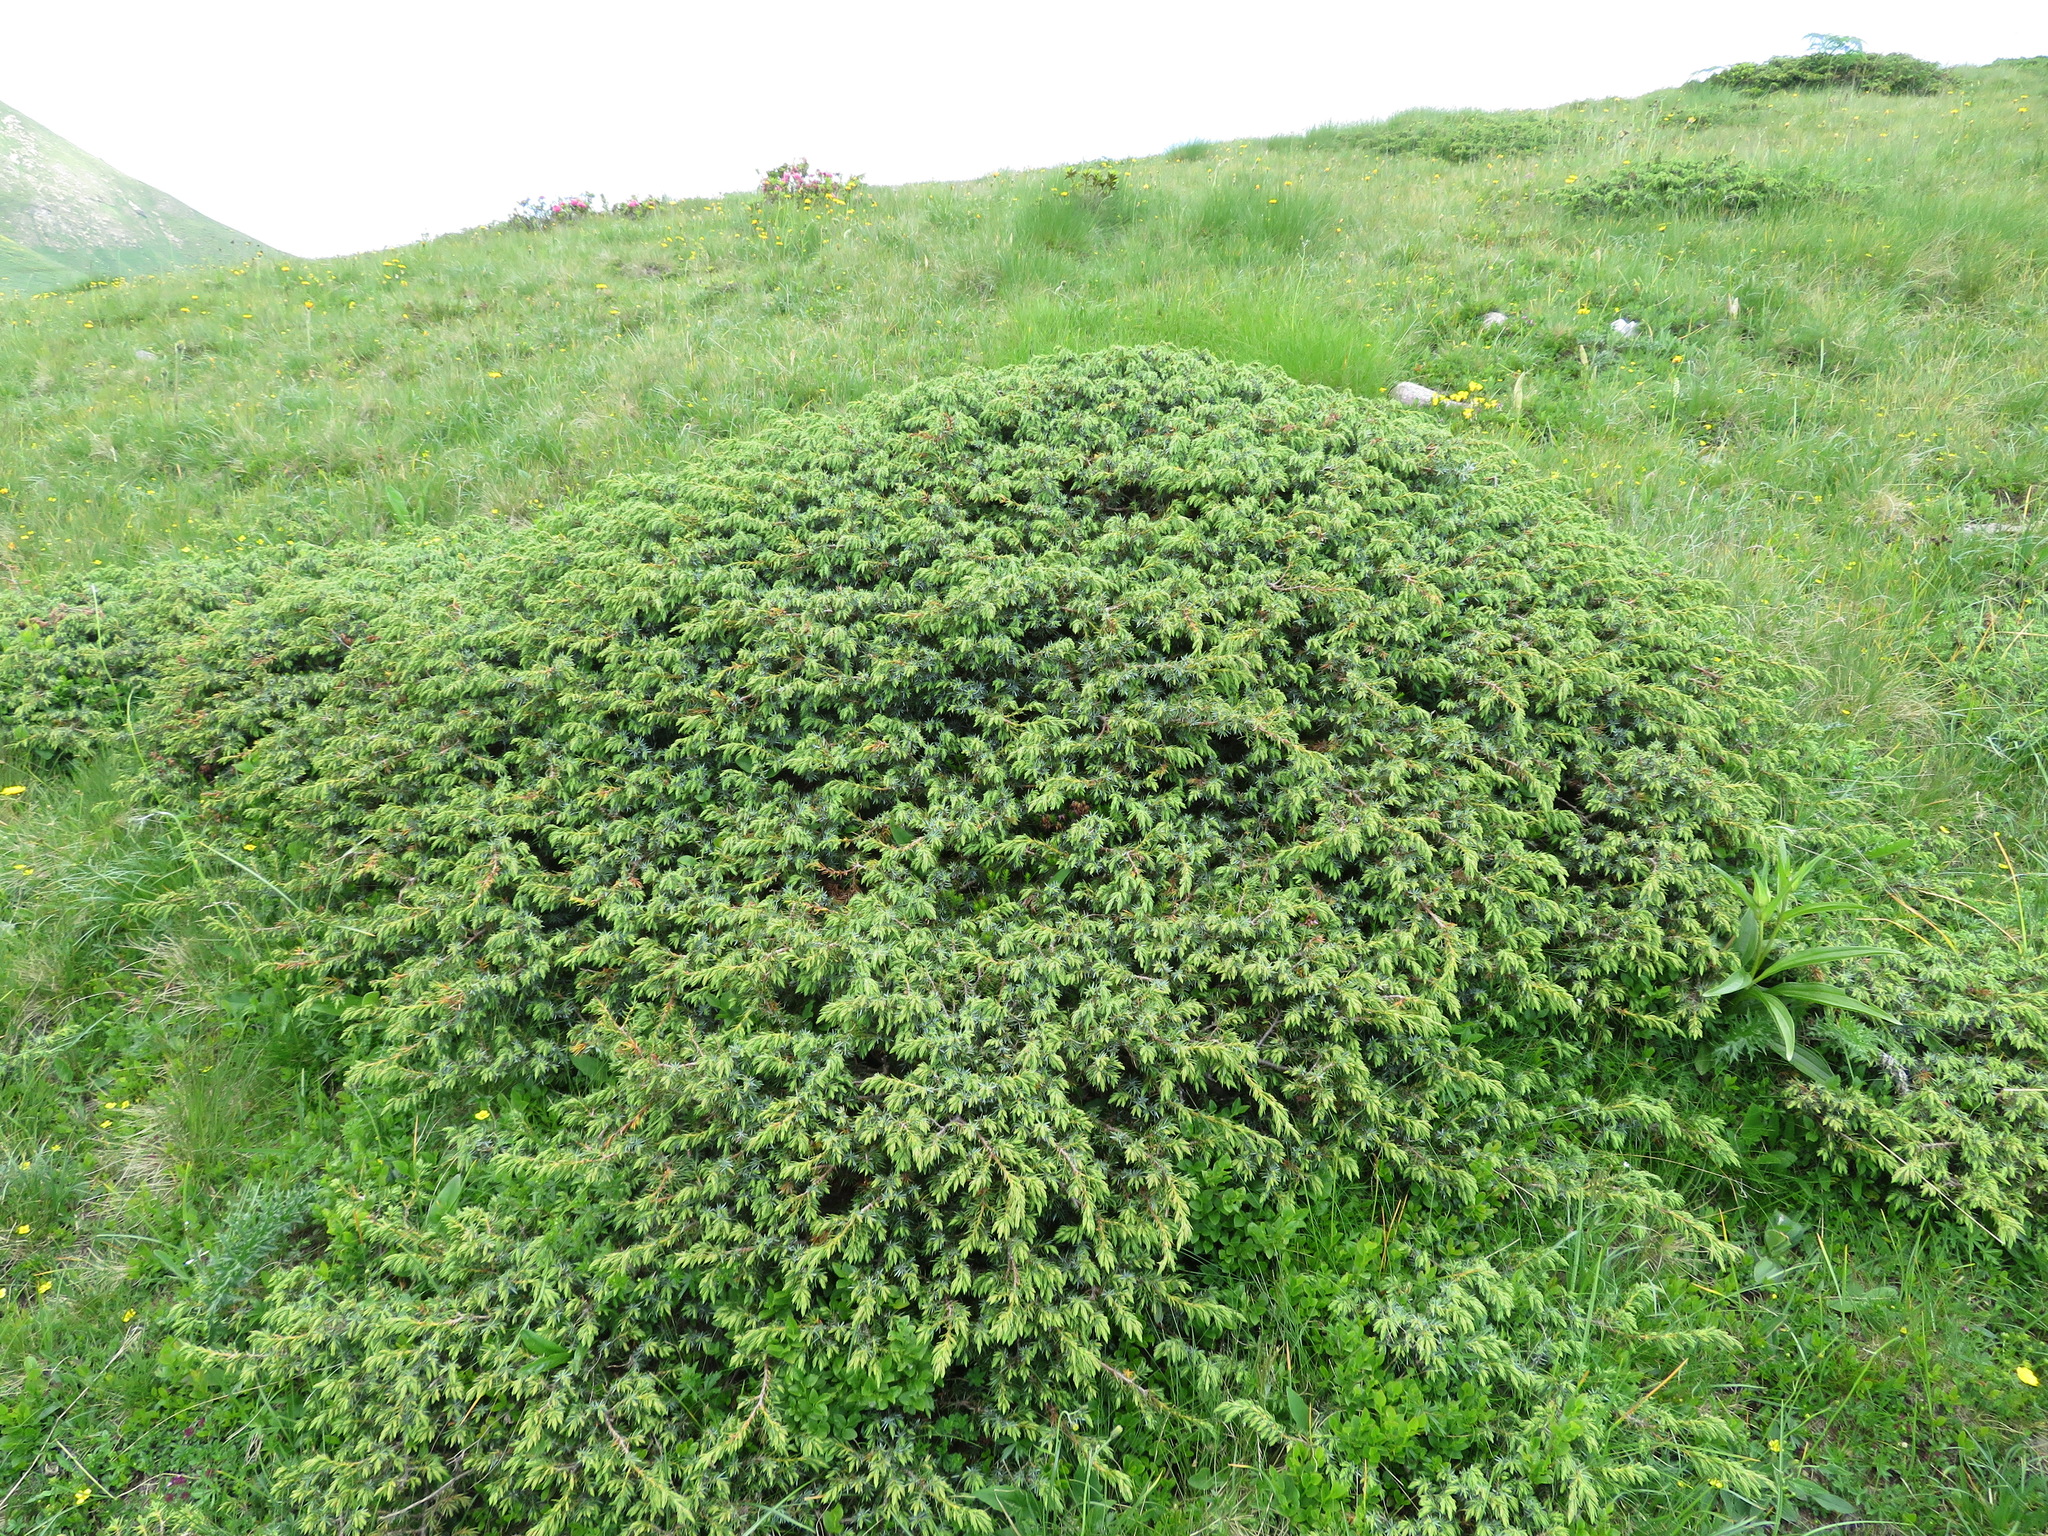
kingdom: Plantae
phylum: Tracheophyta
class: Pinopsida
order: Pinales
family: Cupressaceae
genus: Juniperus
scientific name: Juniperus communis
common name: Common juniper
